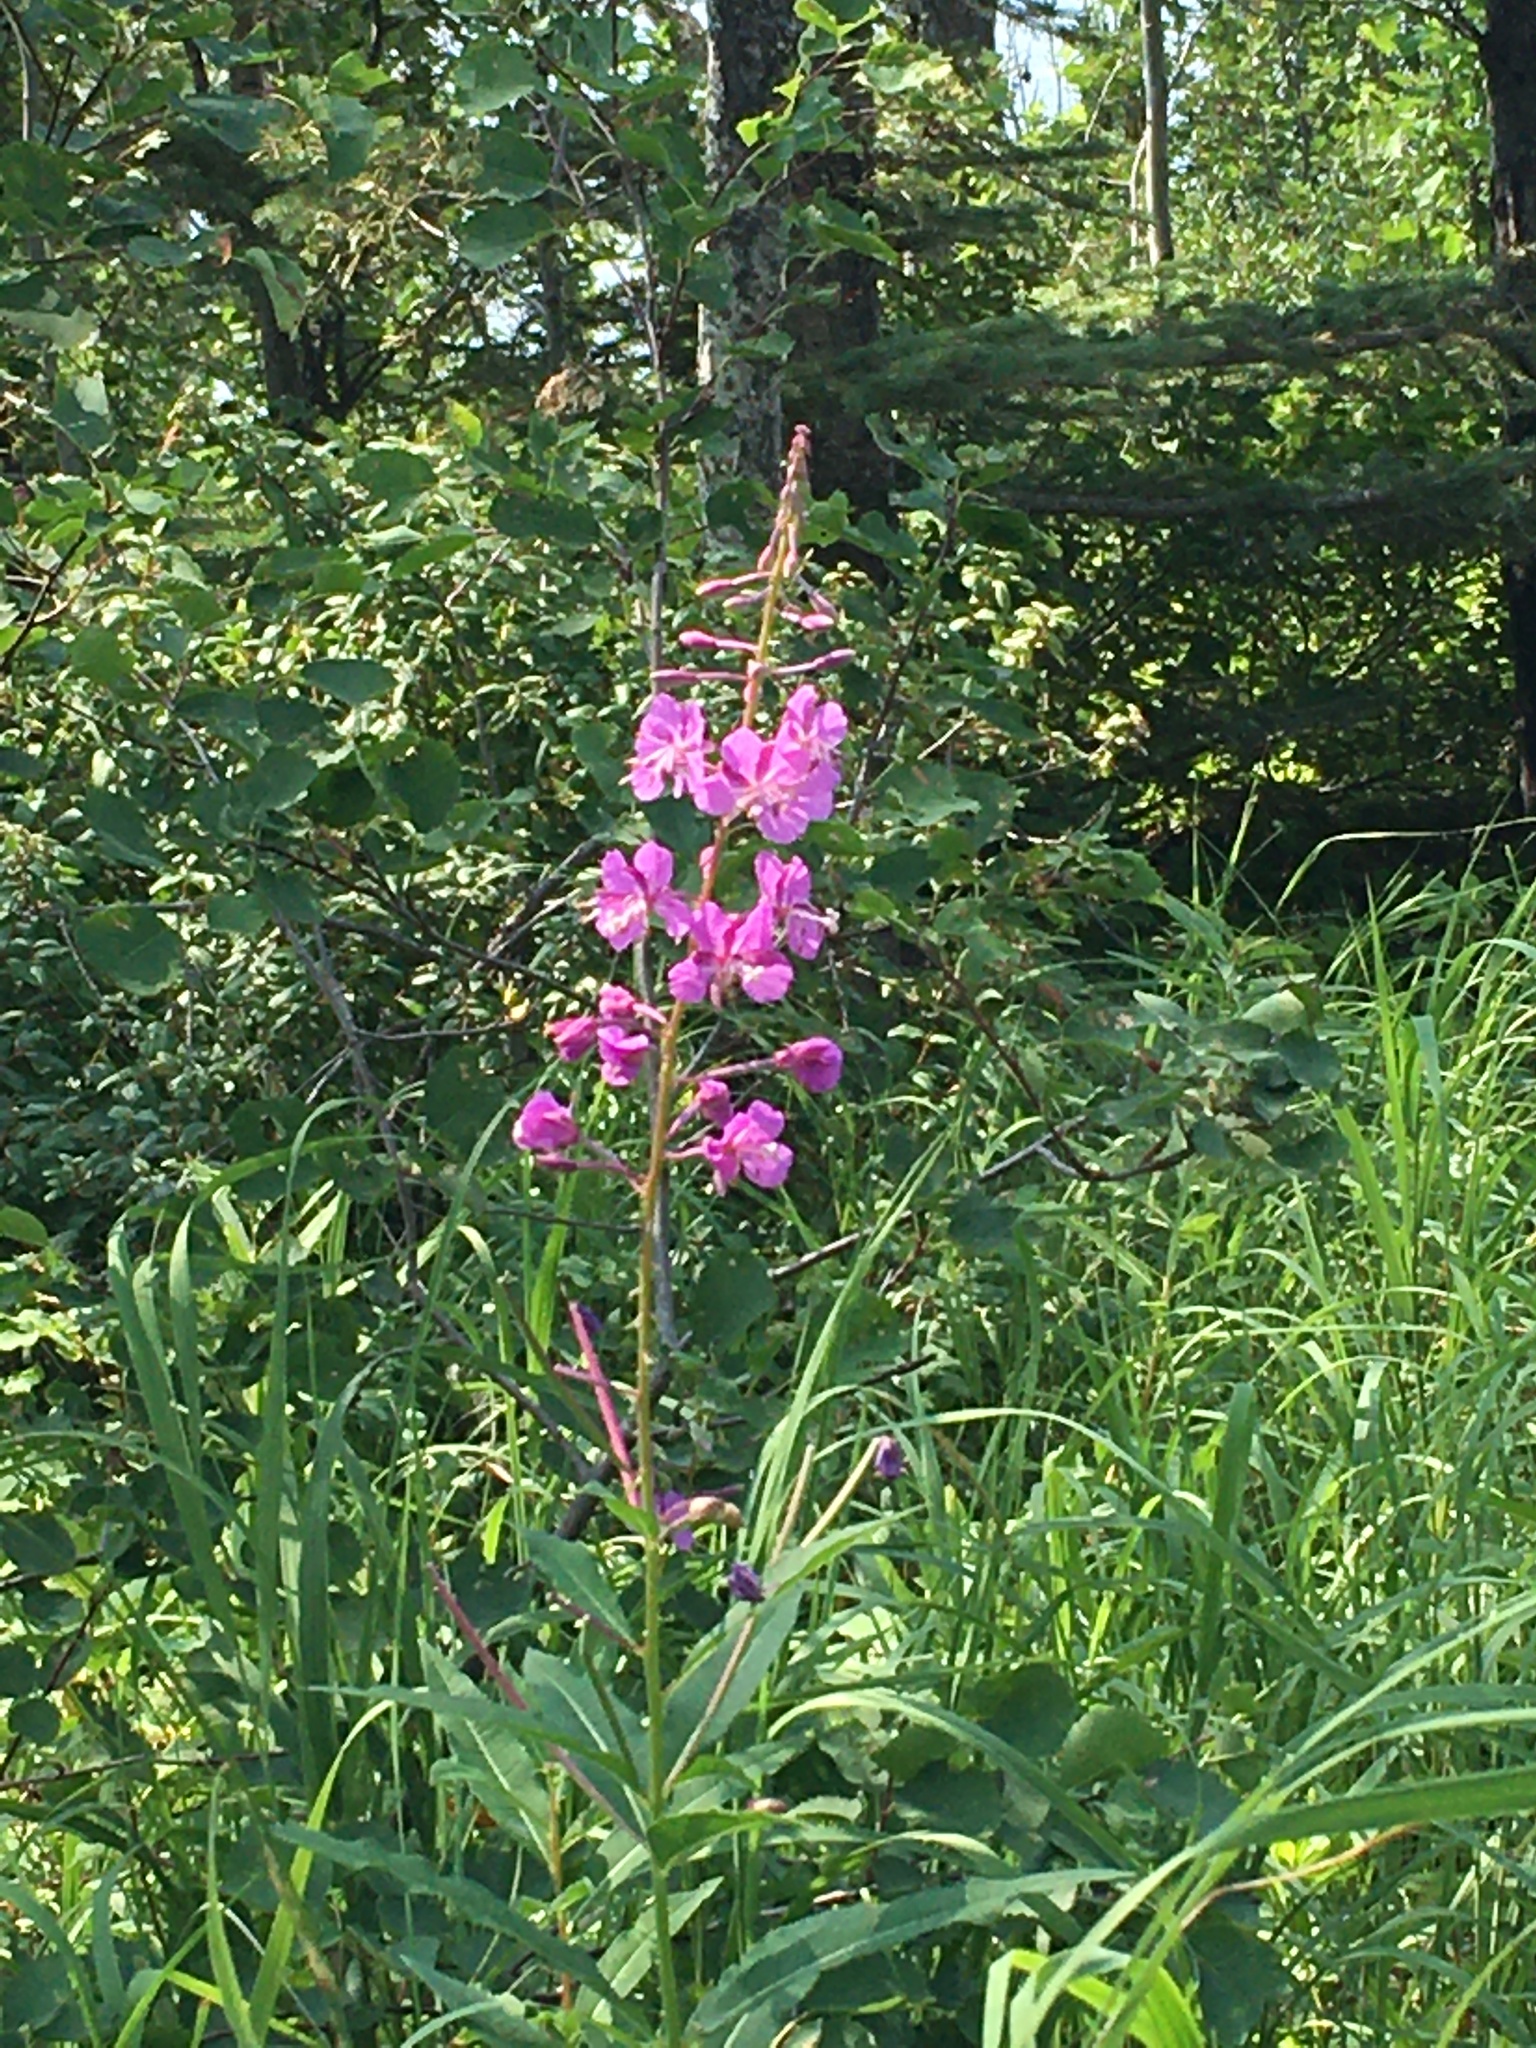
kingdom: Plantae
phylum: Tracheophyta
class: Magnoliopsida
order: Myrtales
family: Onagraceae
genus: Chamaenerion
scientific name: Chamaenerion angustifolium
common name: Fireweed
